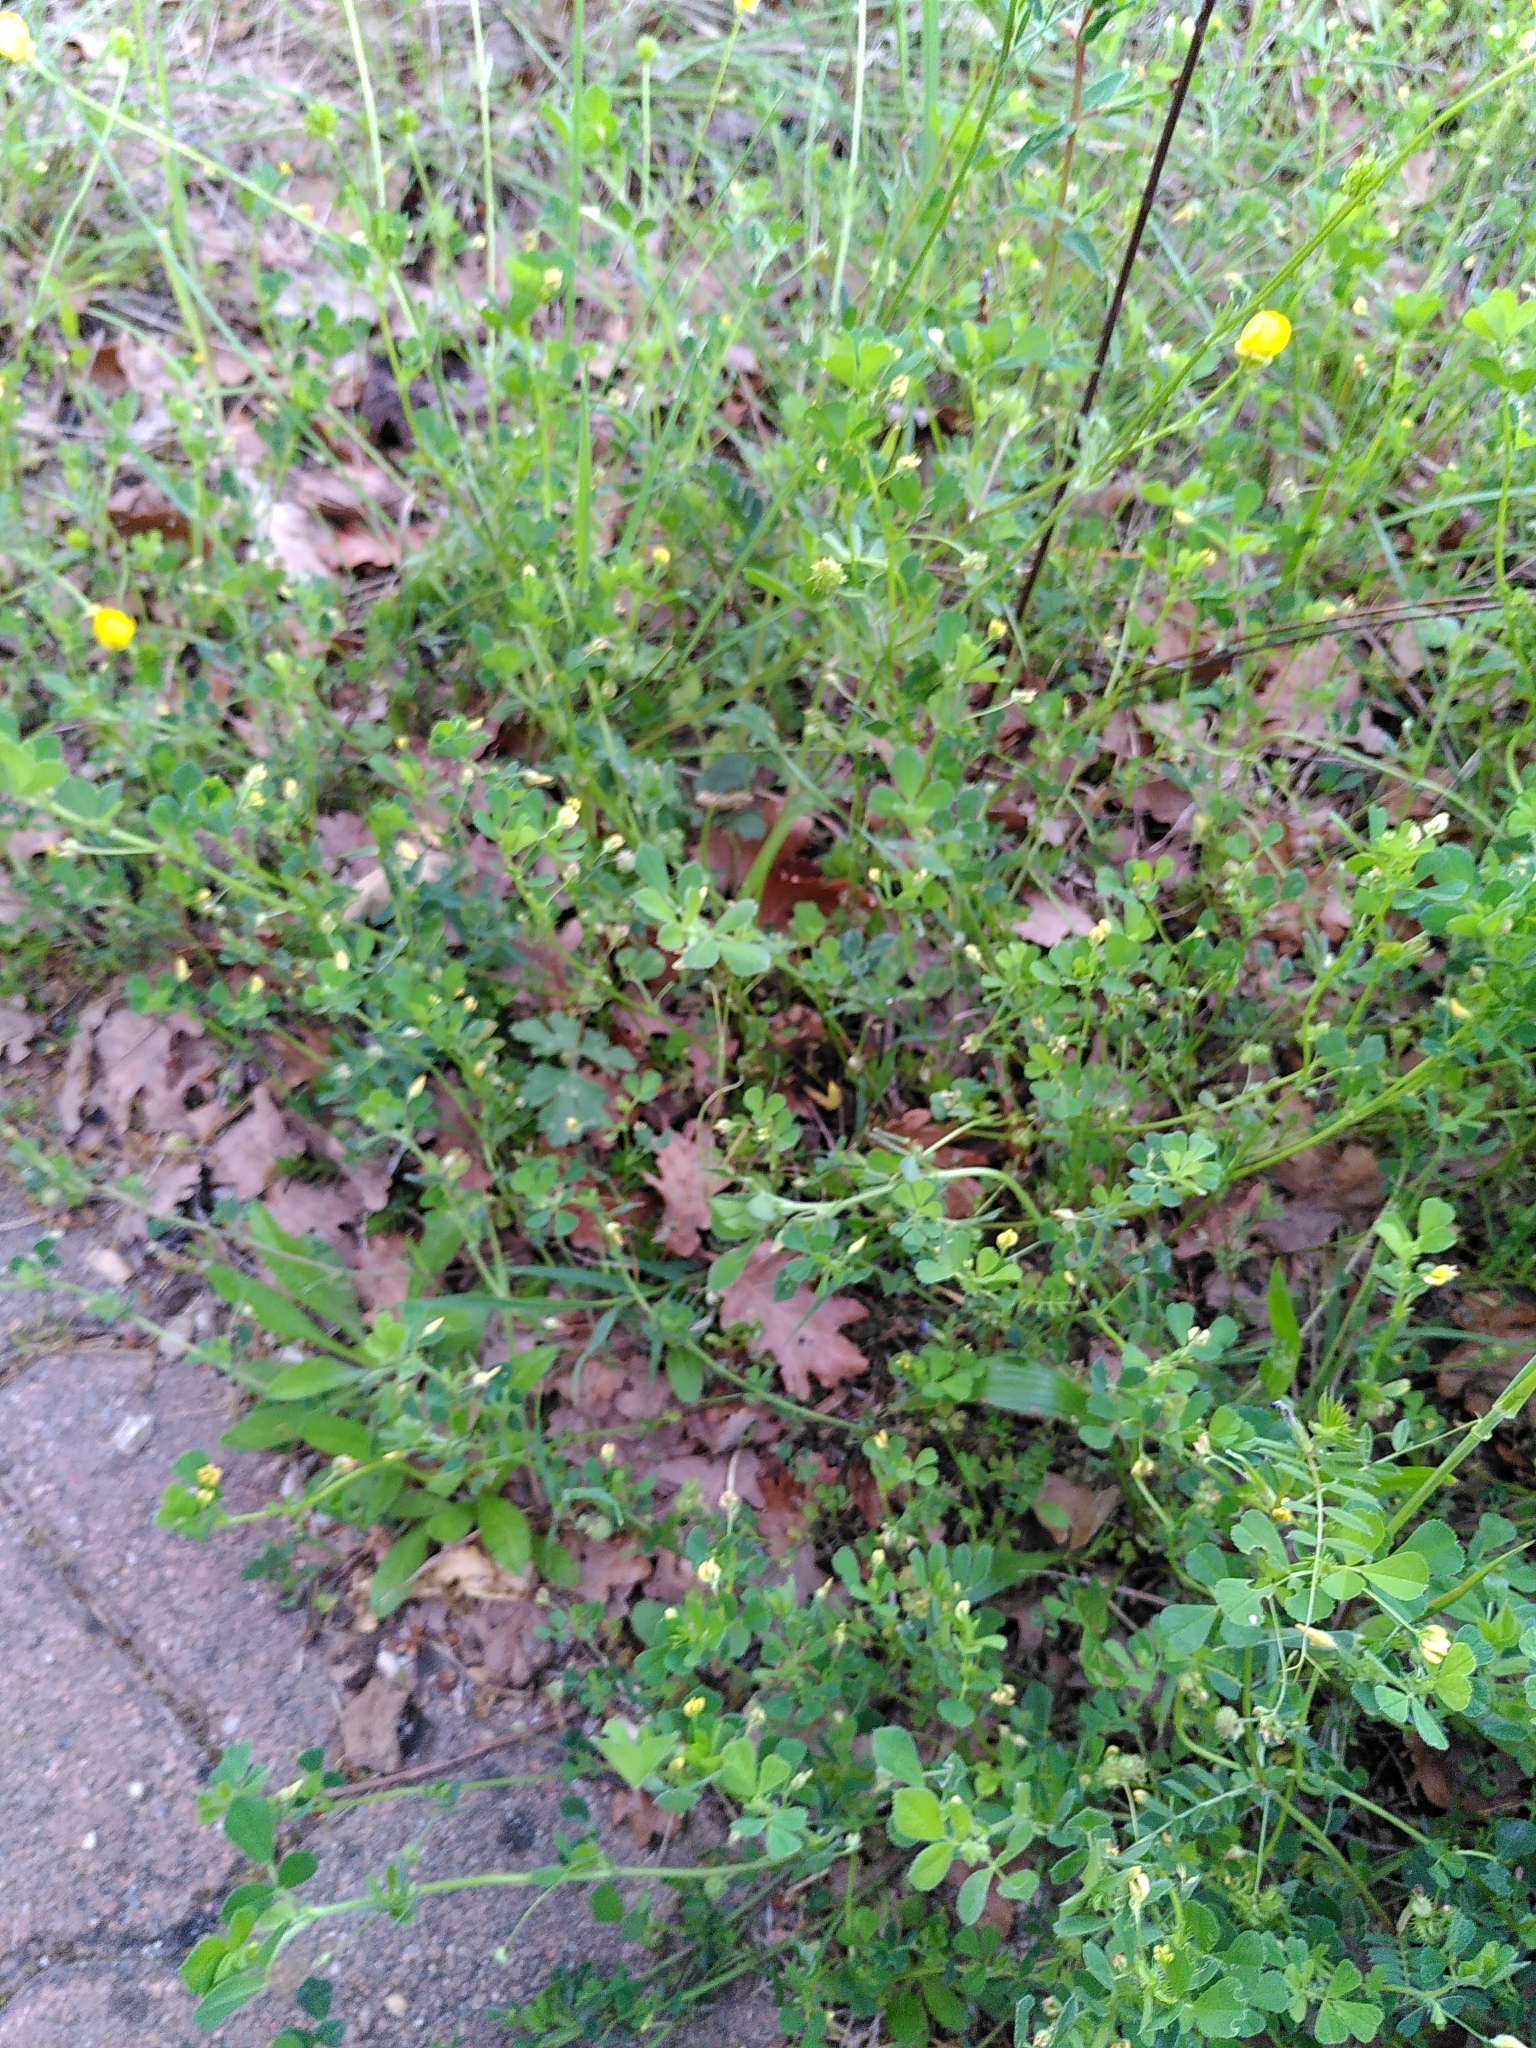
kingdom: Plantae
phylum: Tracheophyta
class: Magnoliopsida
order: Fabales
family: Fabaceae
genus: Medicago
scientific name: Medicago polymorpha
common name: Burclover
